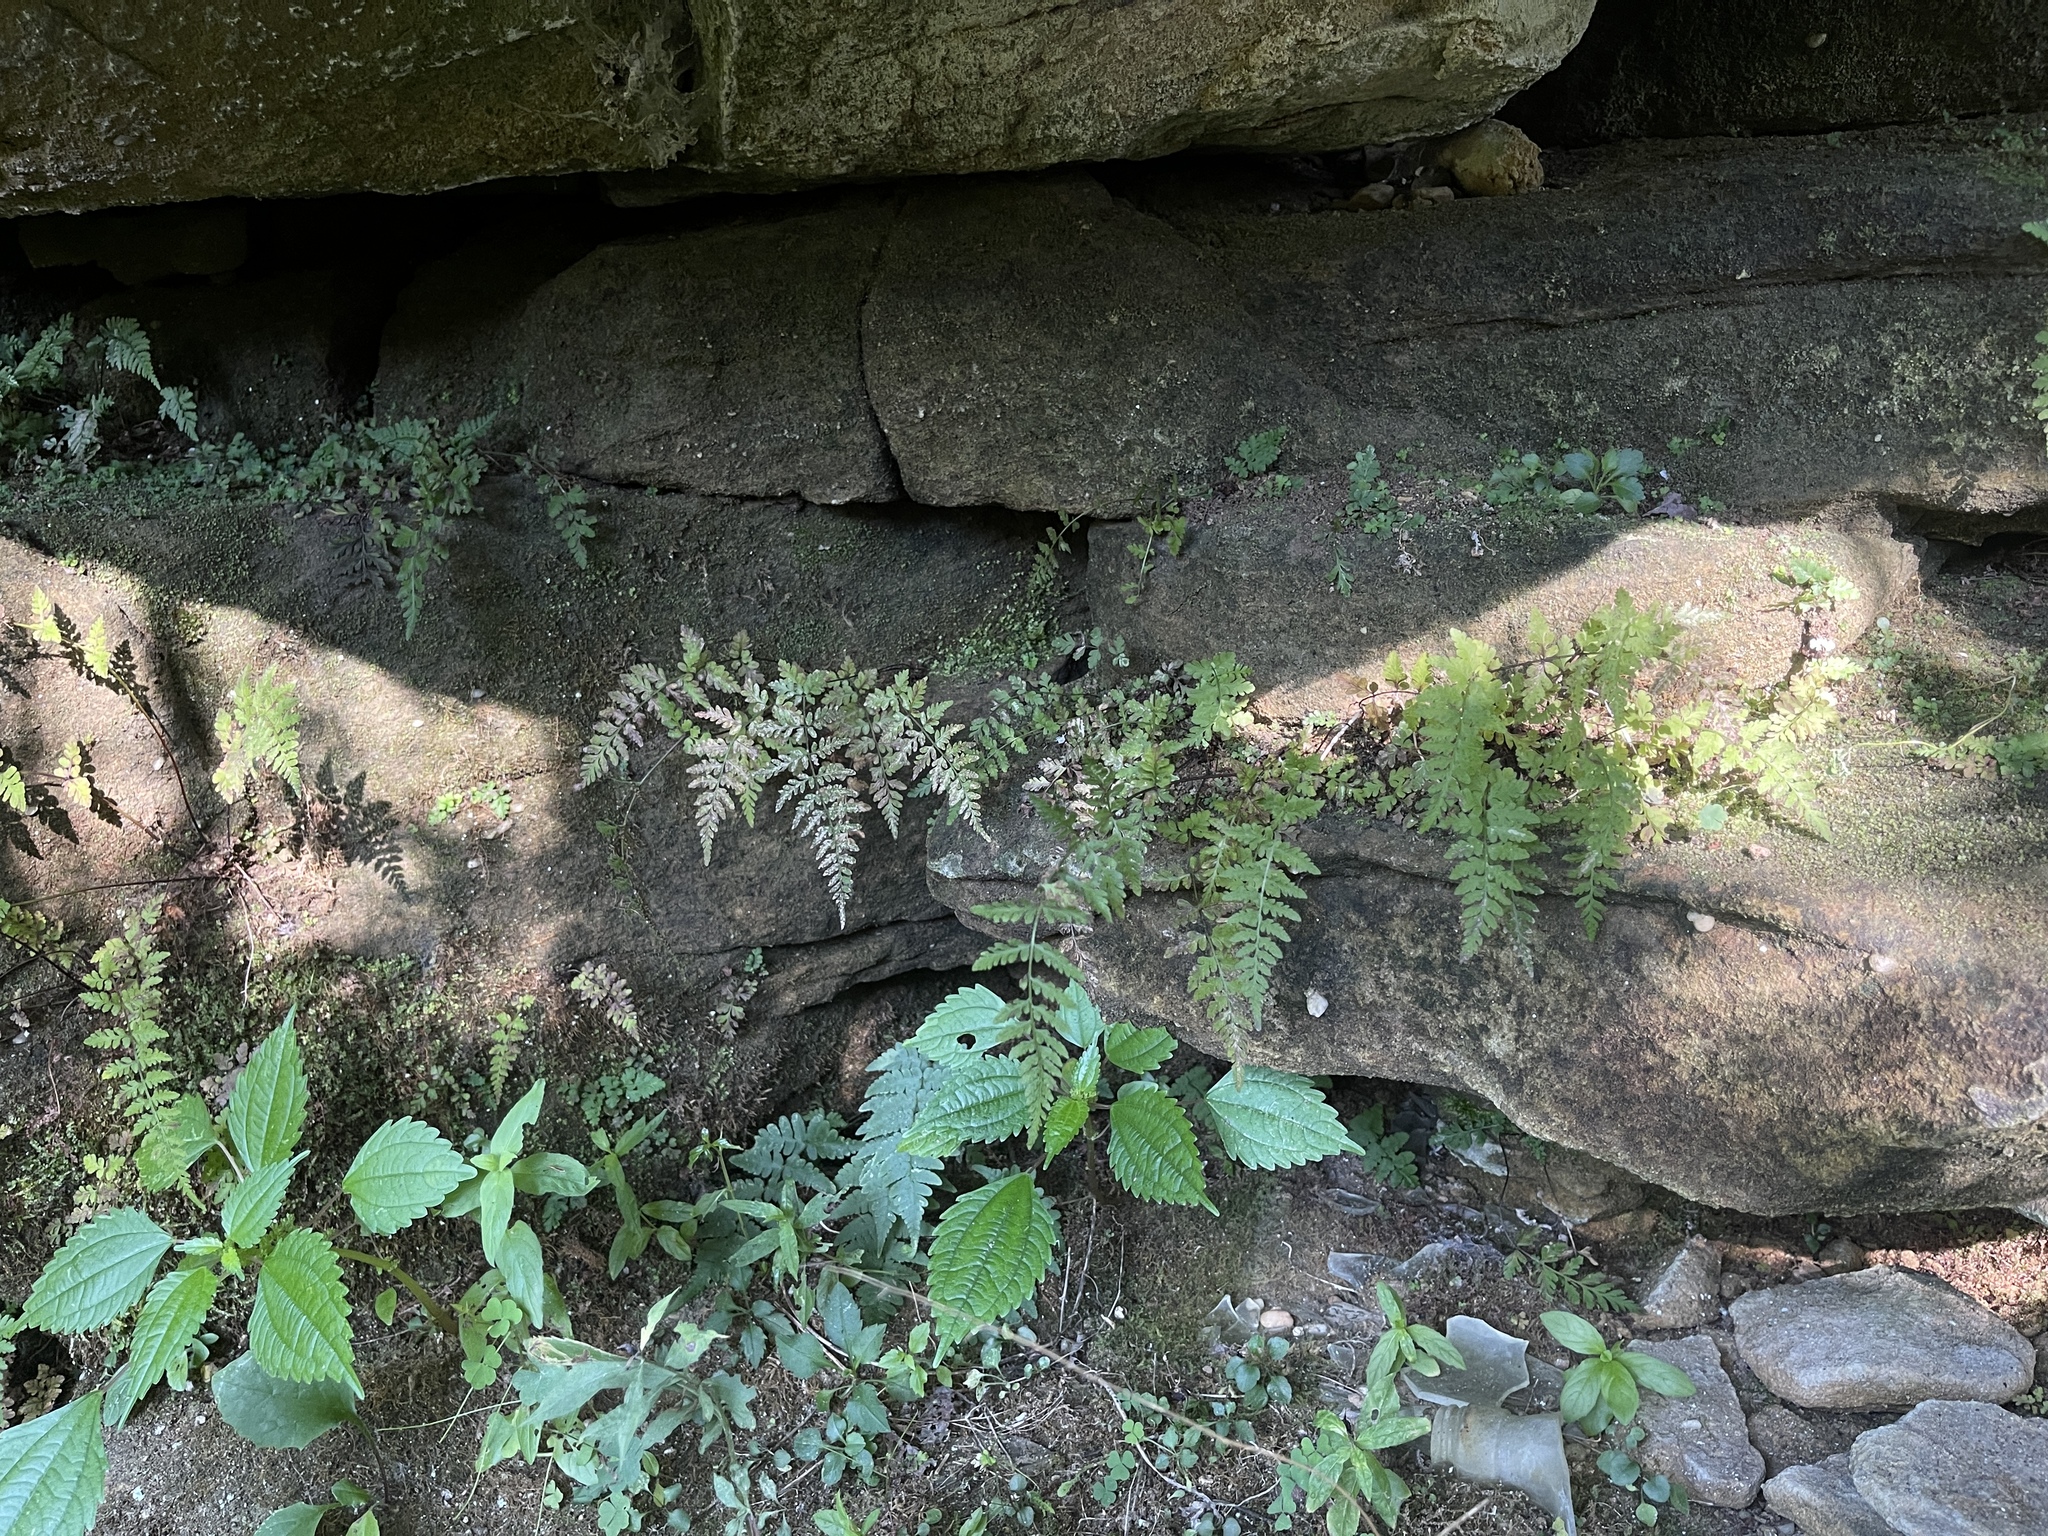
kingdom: Plantae
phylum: Tracheophyta
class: Polypodiopsida
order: Polypodiales
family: Cystopteridaceae
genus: Cystopteris
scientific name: Cystopteris tenuis
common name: Mackay's brittle fern
